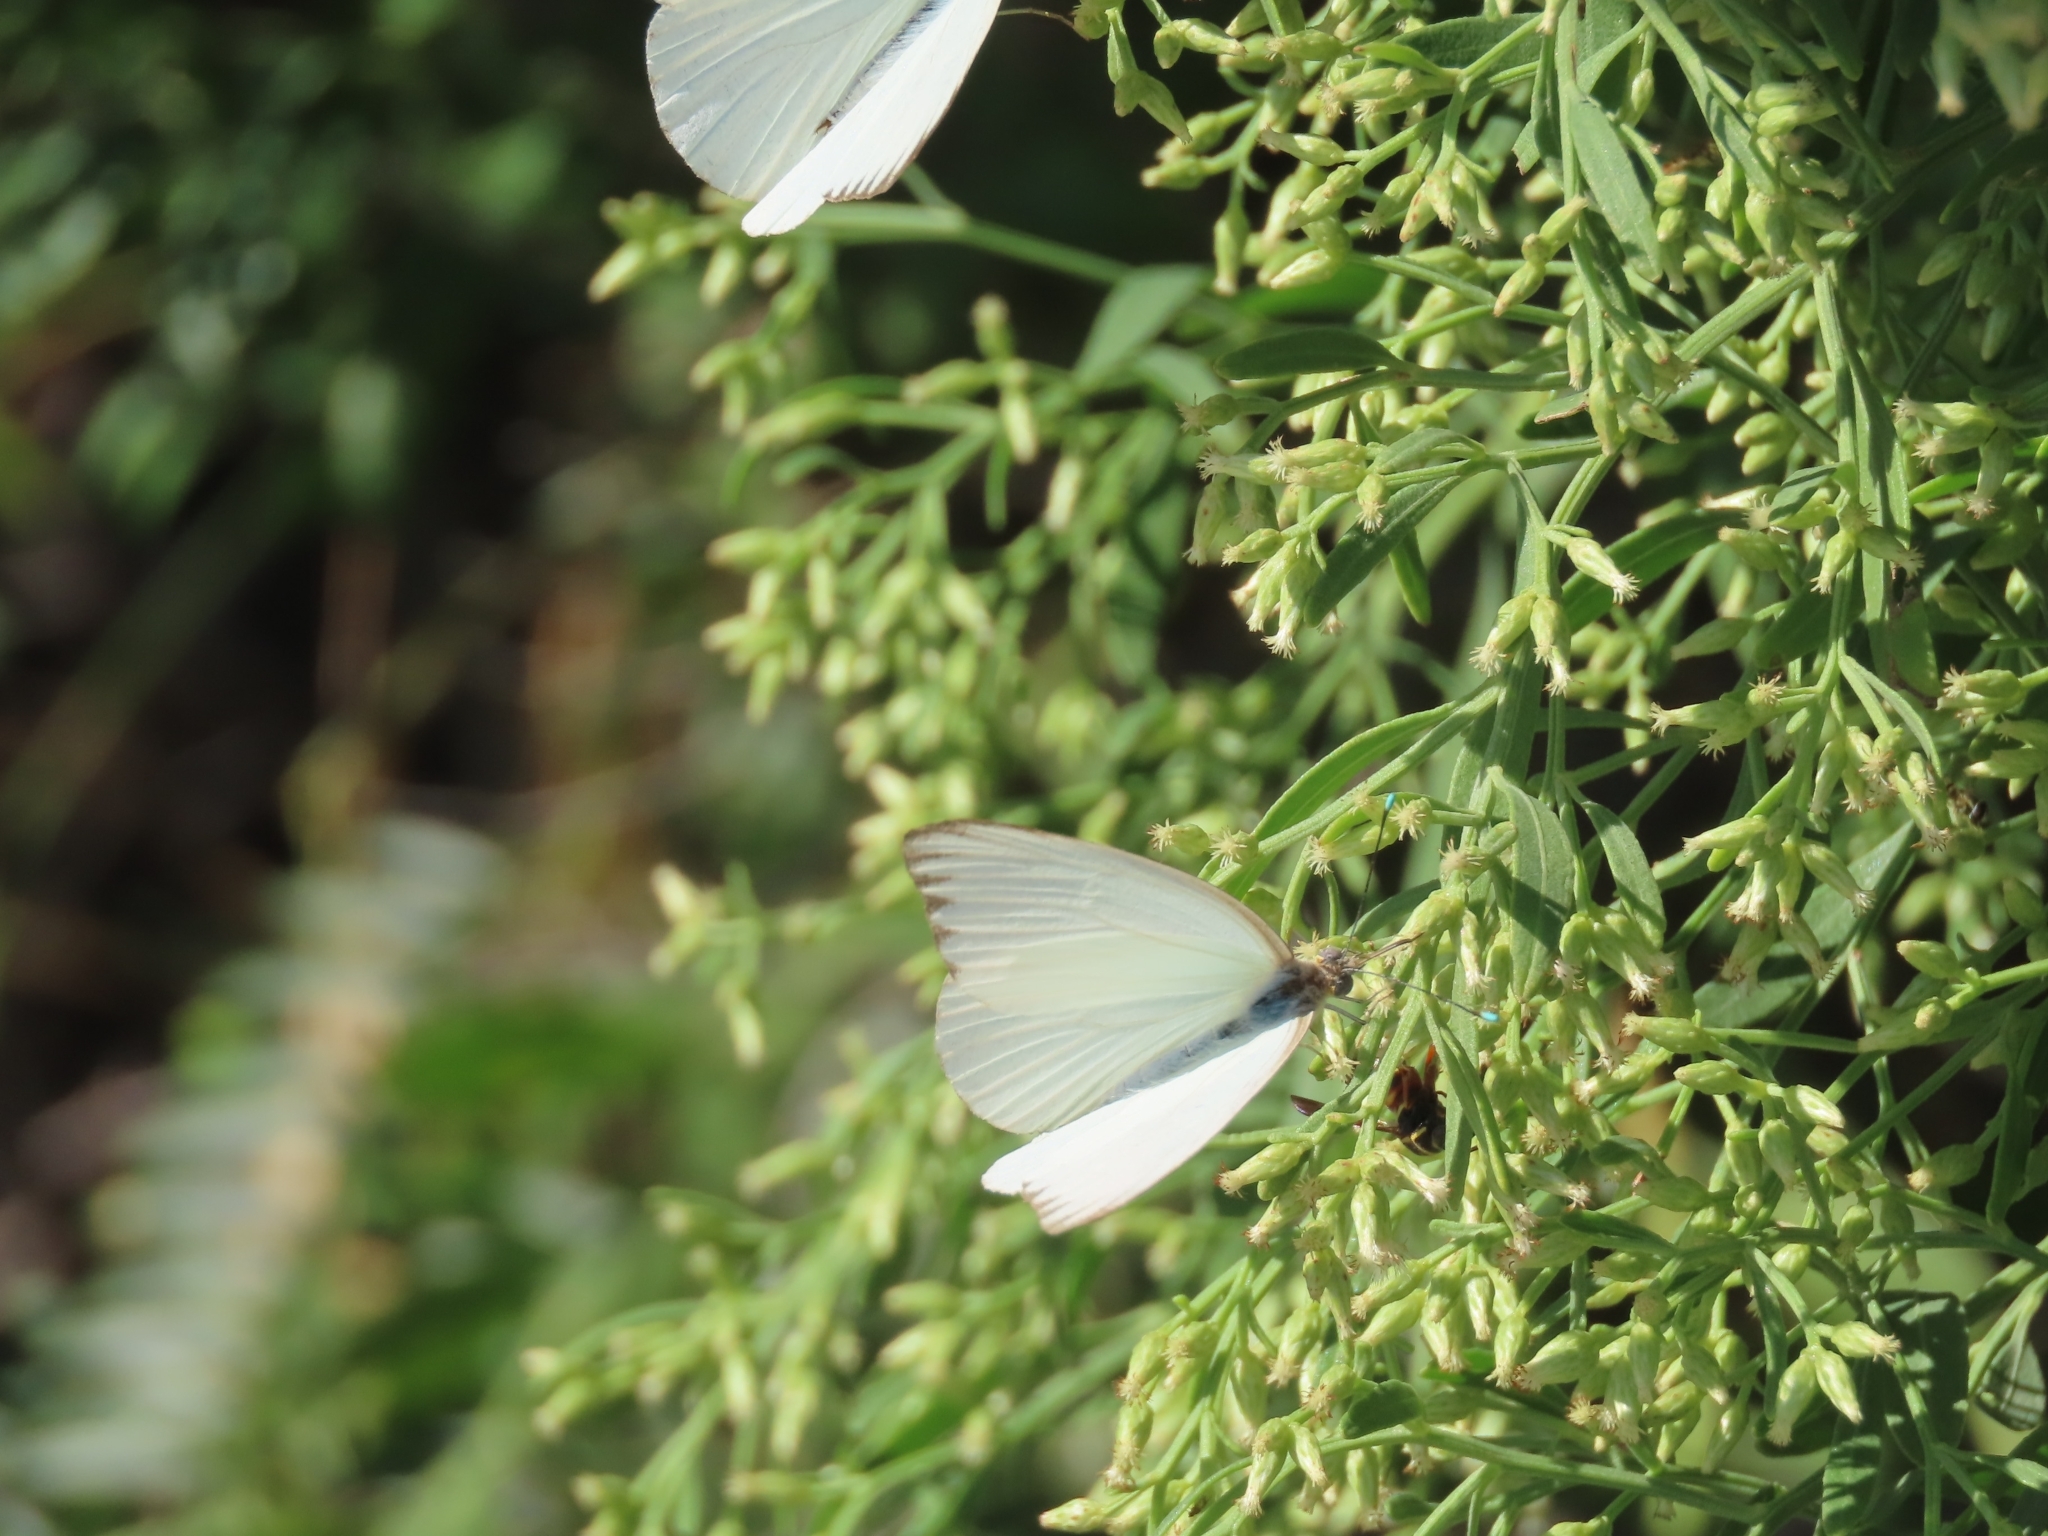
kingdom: Animalia
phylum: Arthropoda
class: Insecta
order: Lepidoptera
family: Pieridae
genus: Ascia
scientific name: Ascia monuste
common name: Great southern white
